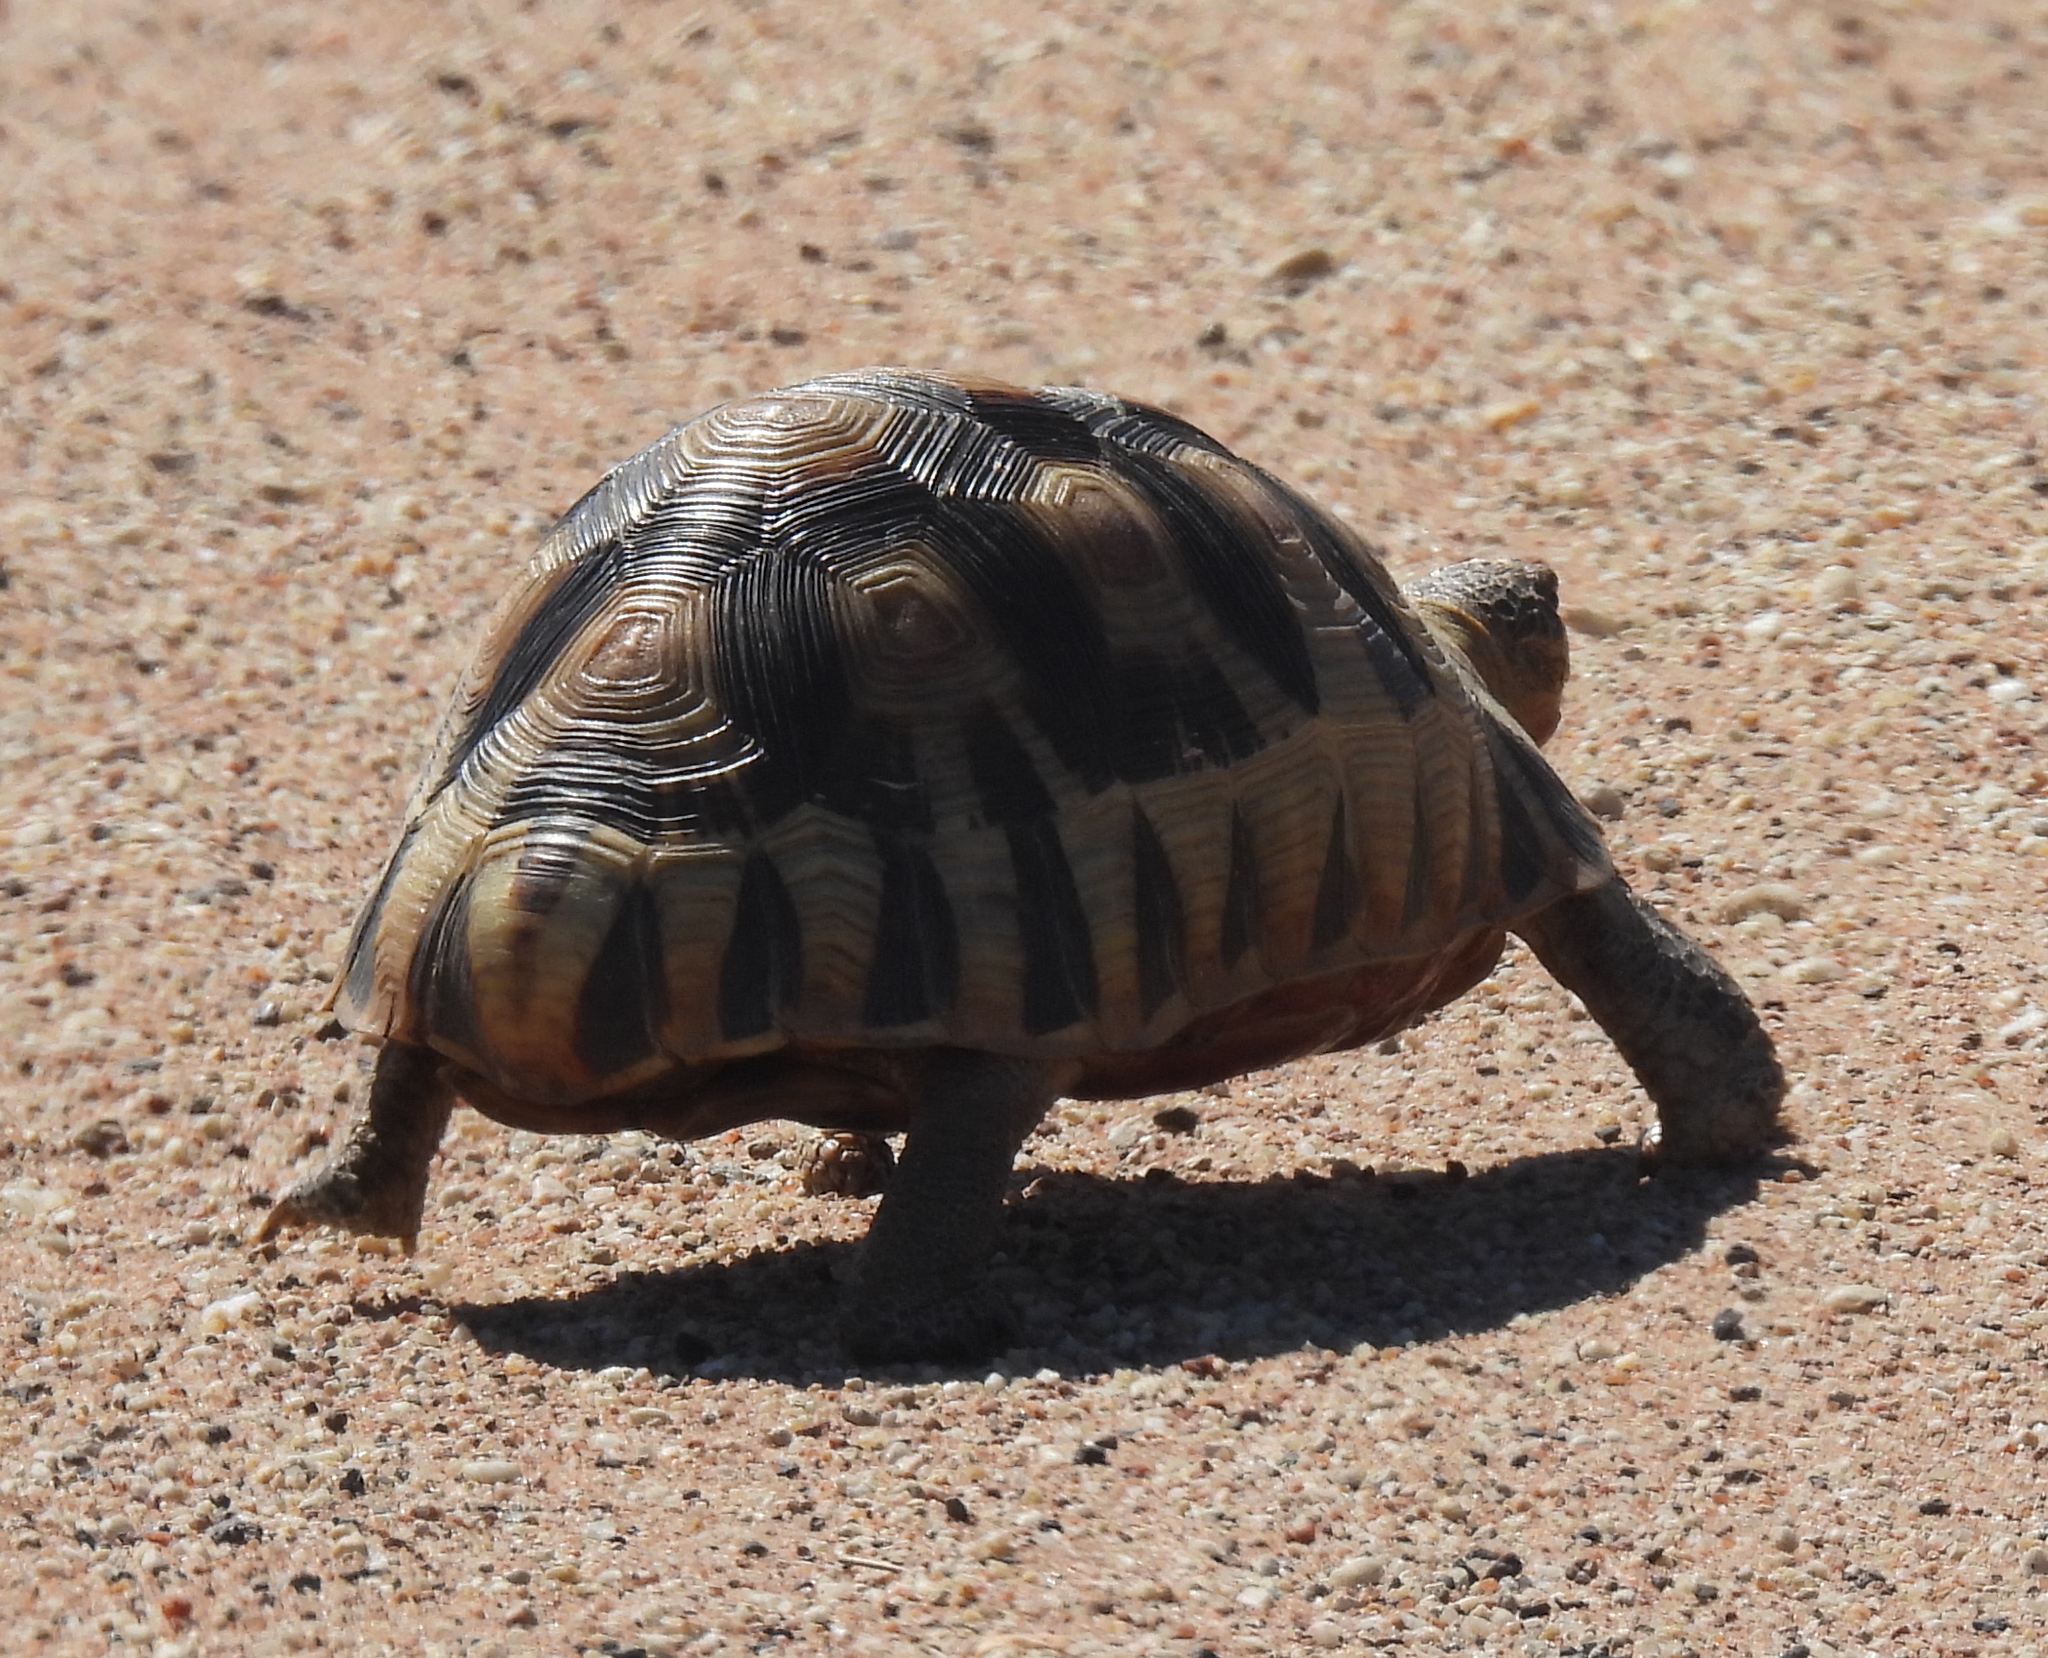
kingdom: Animalia
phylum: Chordata
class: Testudines
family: Testudinidae
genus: Chersina
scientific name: Chersina angulata
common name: South african bowsprit tortoise
